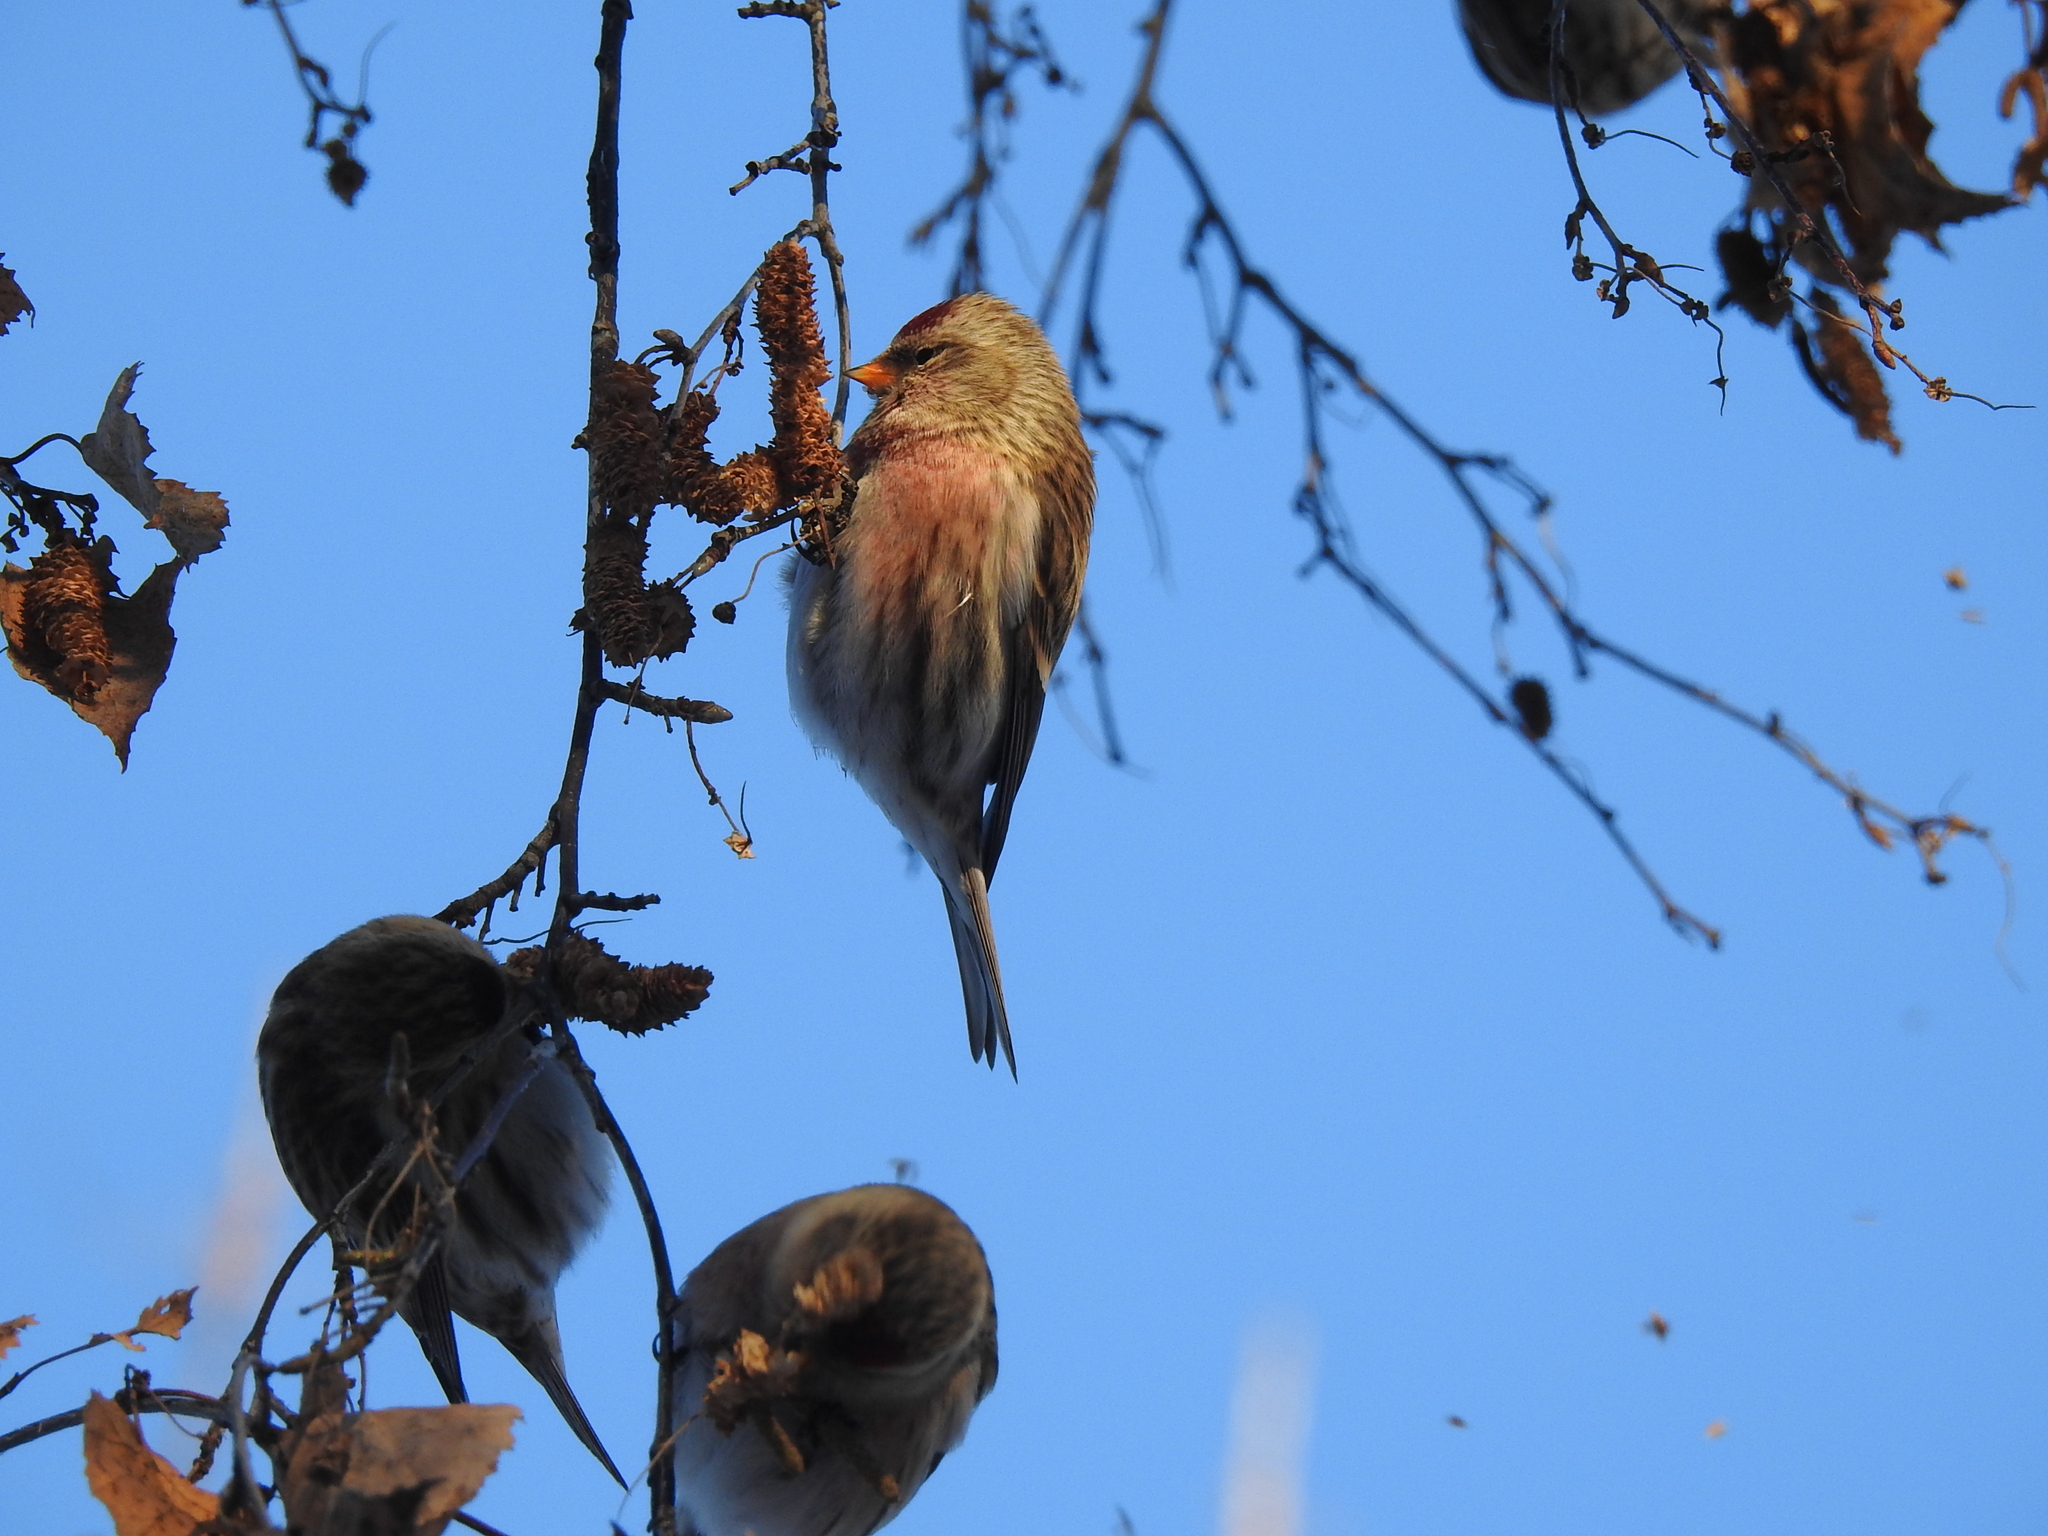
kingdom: Animalia
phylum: Chordata
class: Aves
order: Passeriformes
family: Fringillidae
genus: Acanthis
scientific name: Acanthis flammea
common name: Common redpoll
